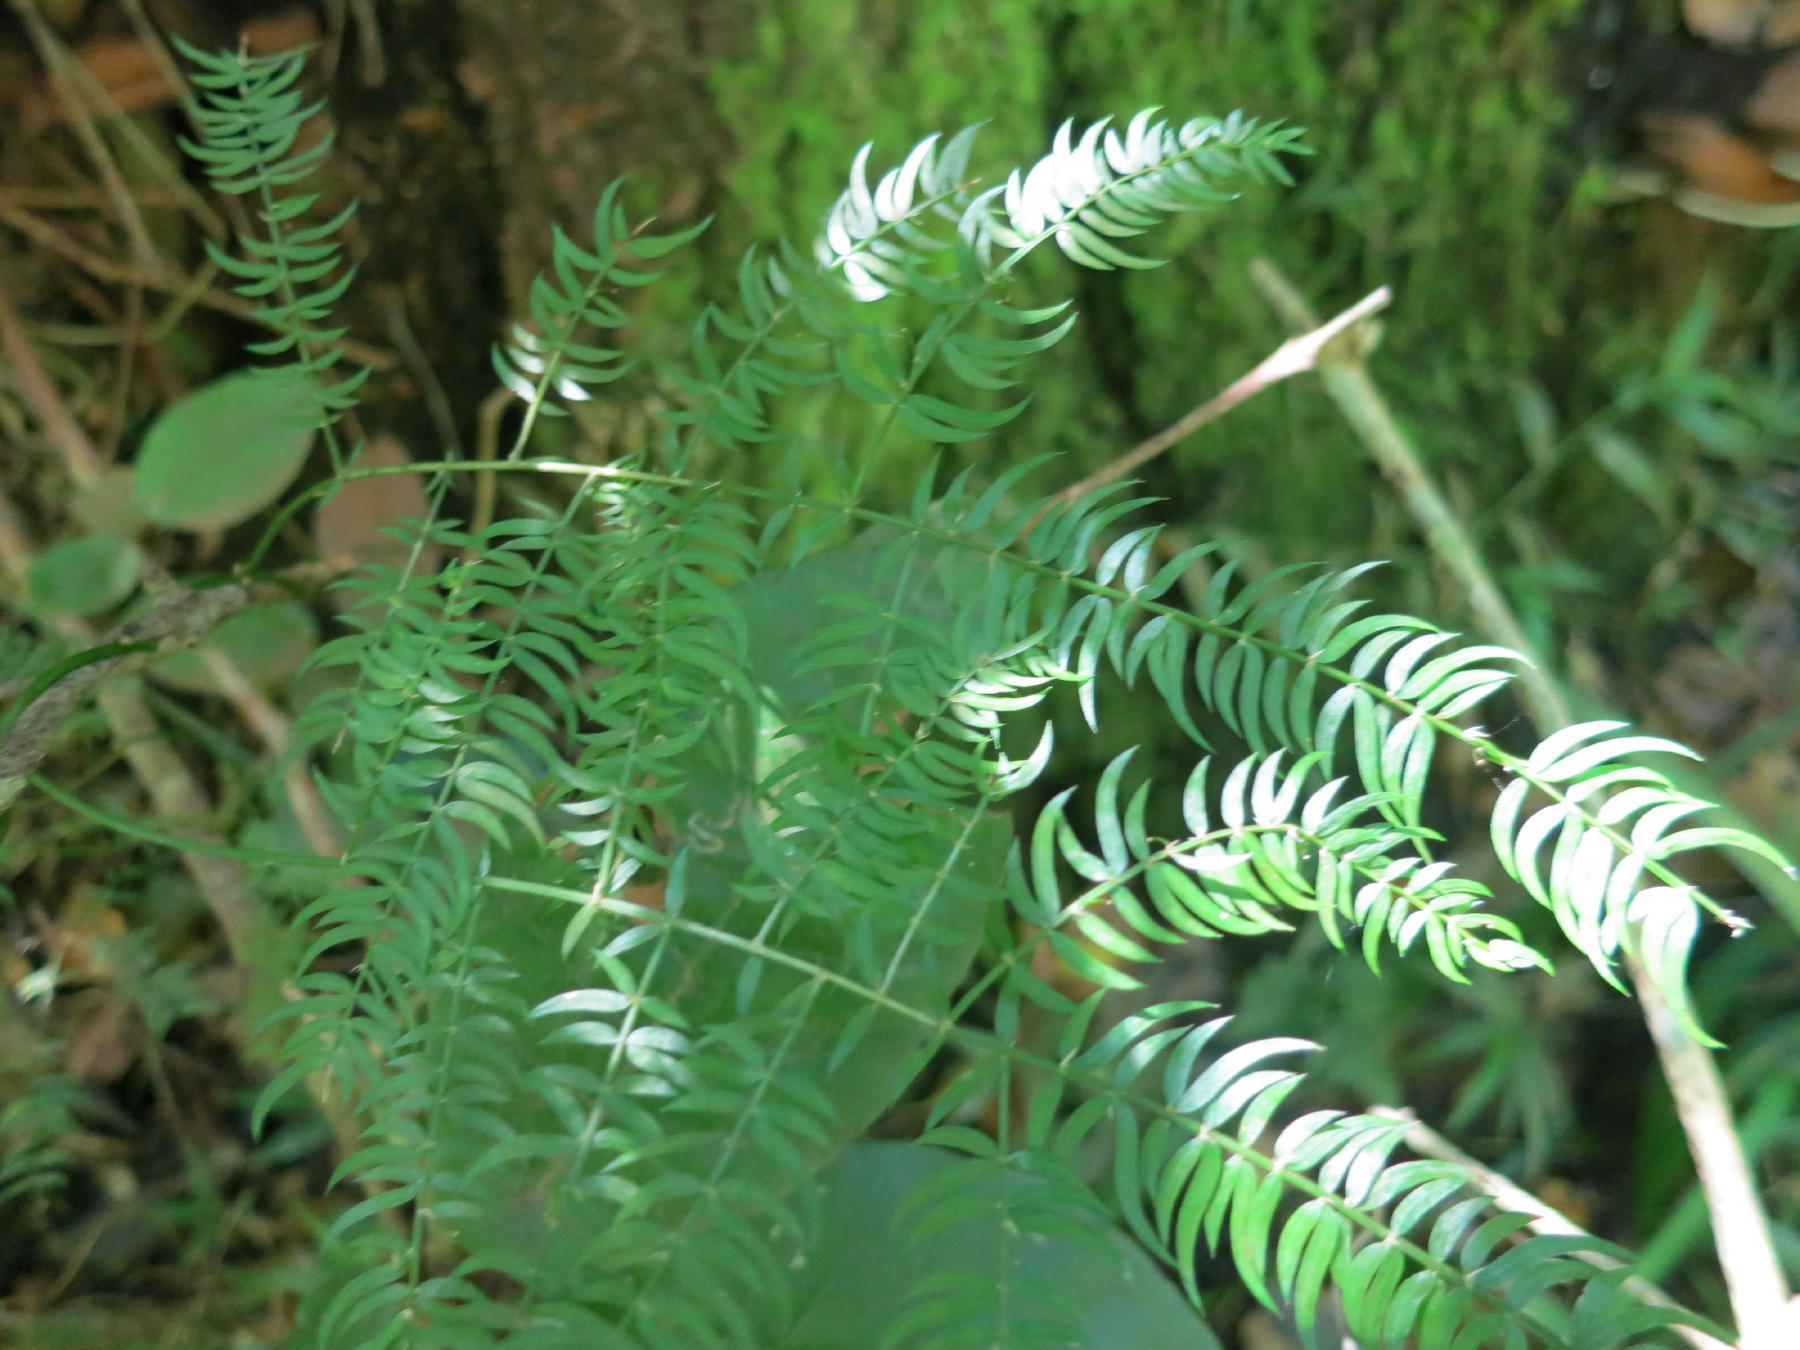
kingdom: Plantae
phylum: Tracheophyta
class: Liliopsida
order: Asparagales
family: Asparagaceae
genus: Asparagus
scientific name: Asparagus scandens
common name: Asparagus-fern
